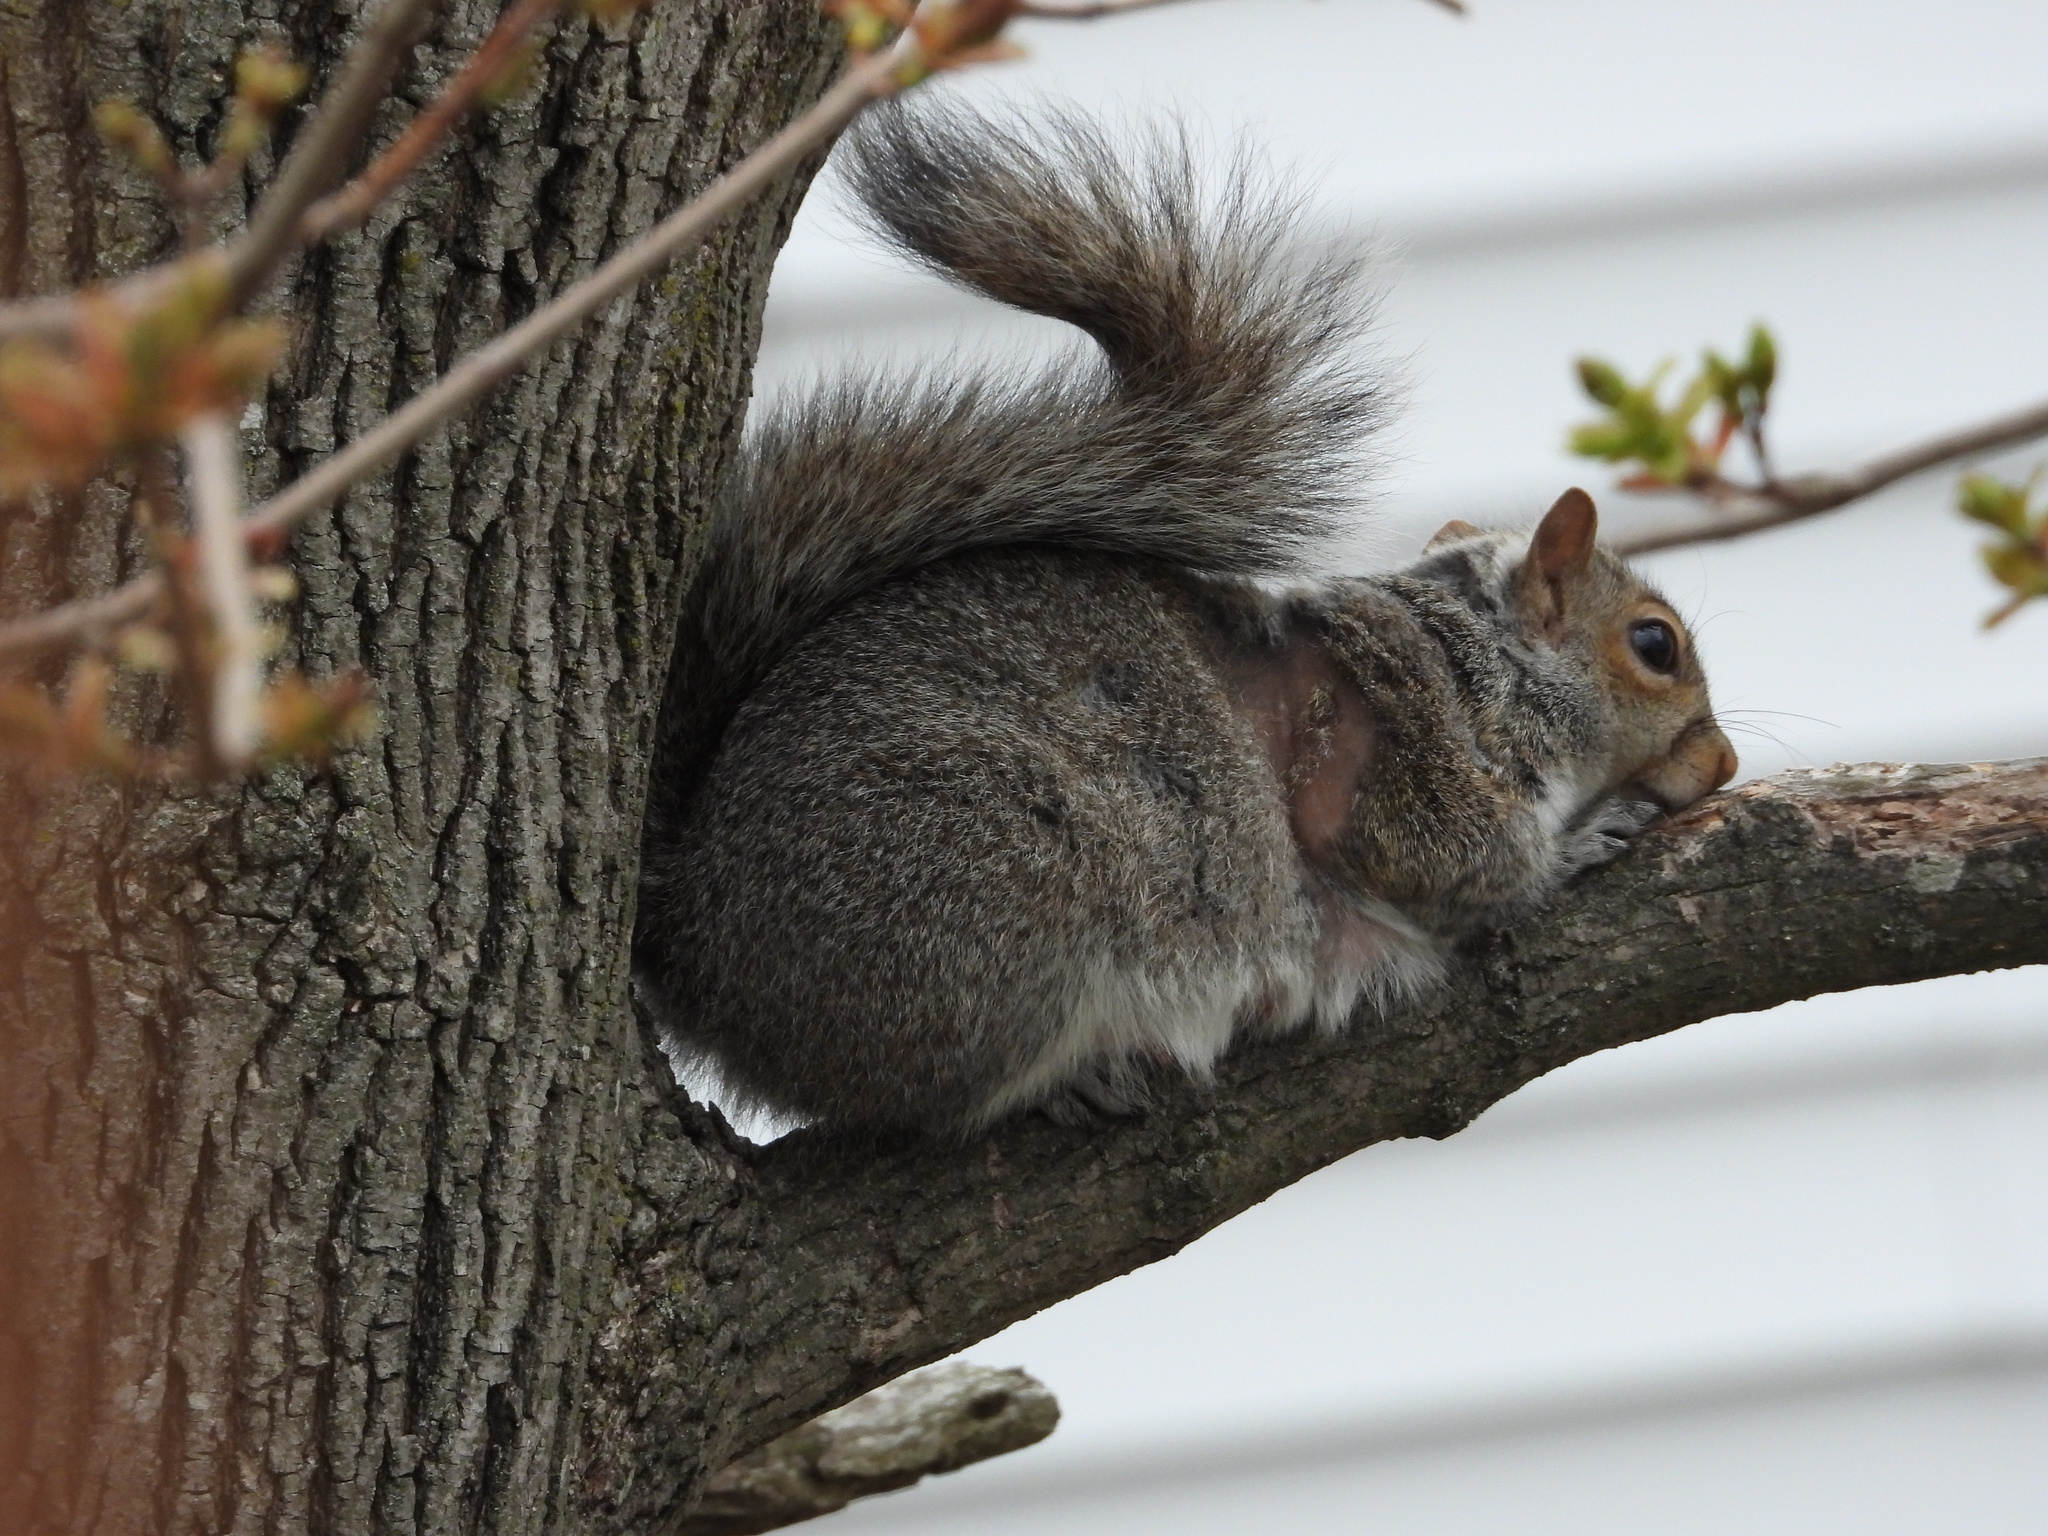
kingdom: Animalia
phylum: Chordata
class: Mammalia
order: Rodentia
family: Sciuridae
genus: Sciurus
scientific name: Sciurus carolinensis
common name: Eastern gray squirrel
